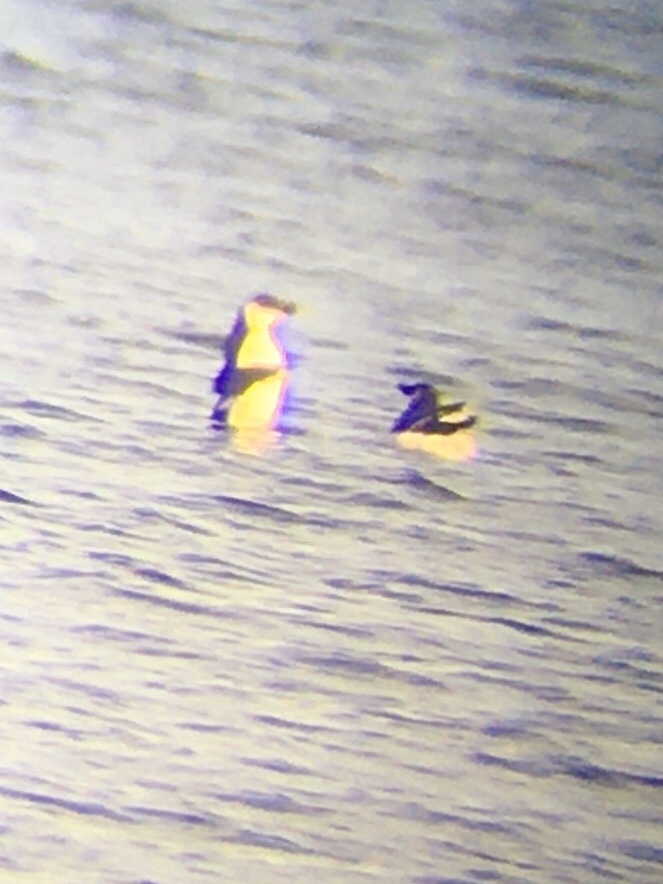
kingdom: Animalia
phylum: Chordata
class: Aves
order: Charadriiformes
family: Alcidae
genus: Alca
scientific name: Alca torda
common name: Razorbill
